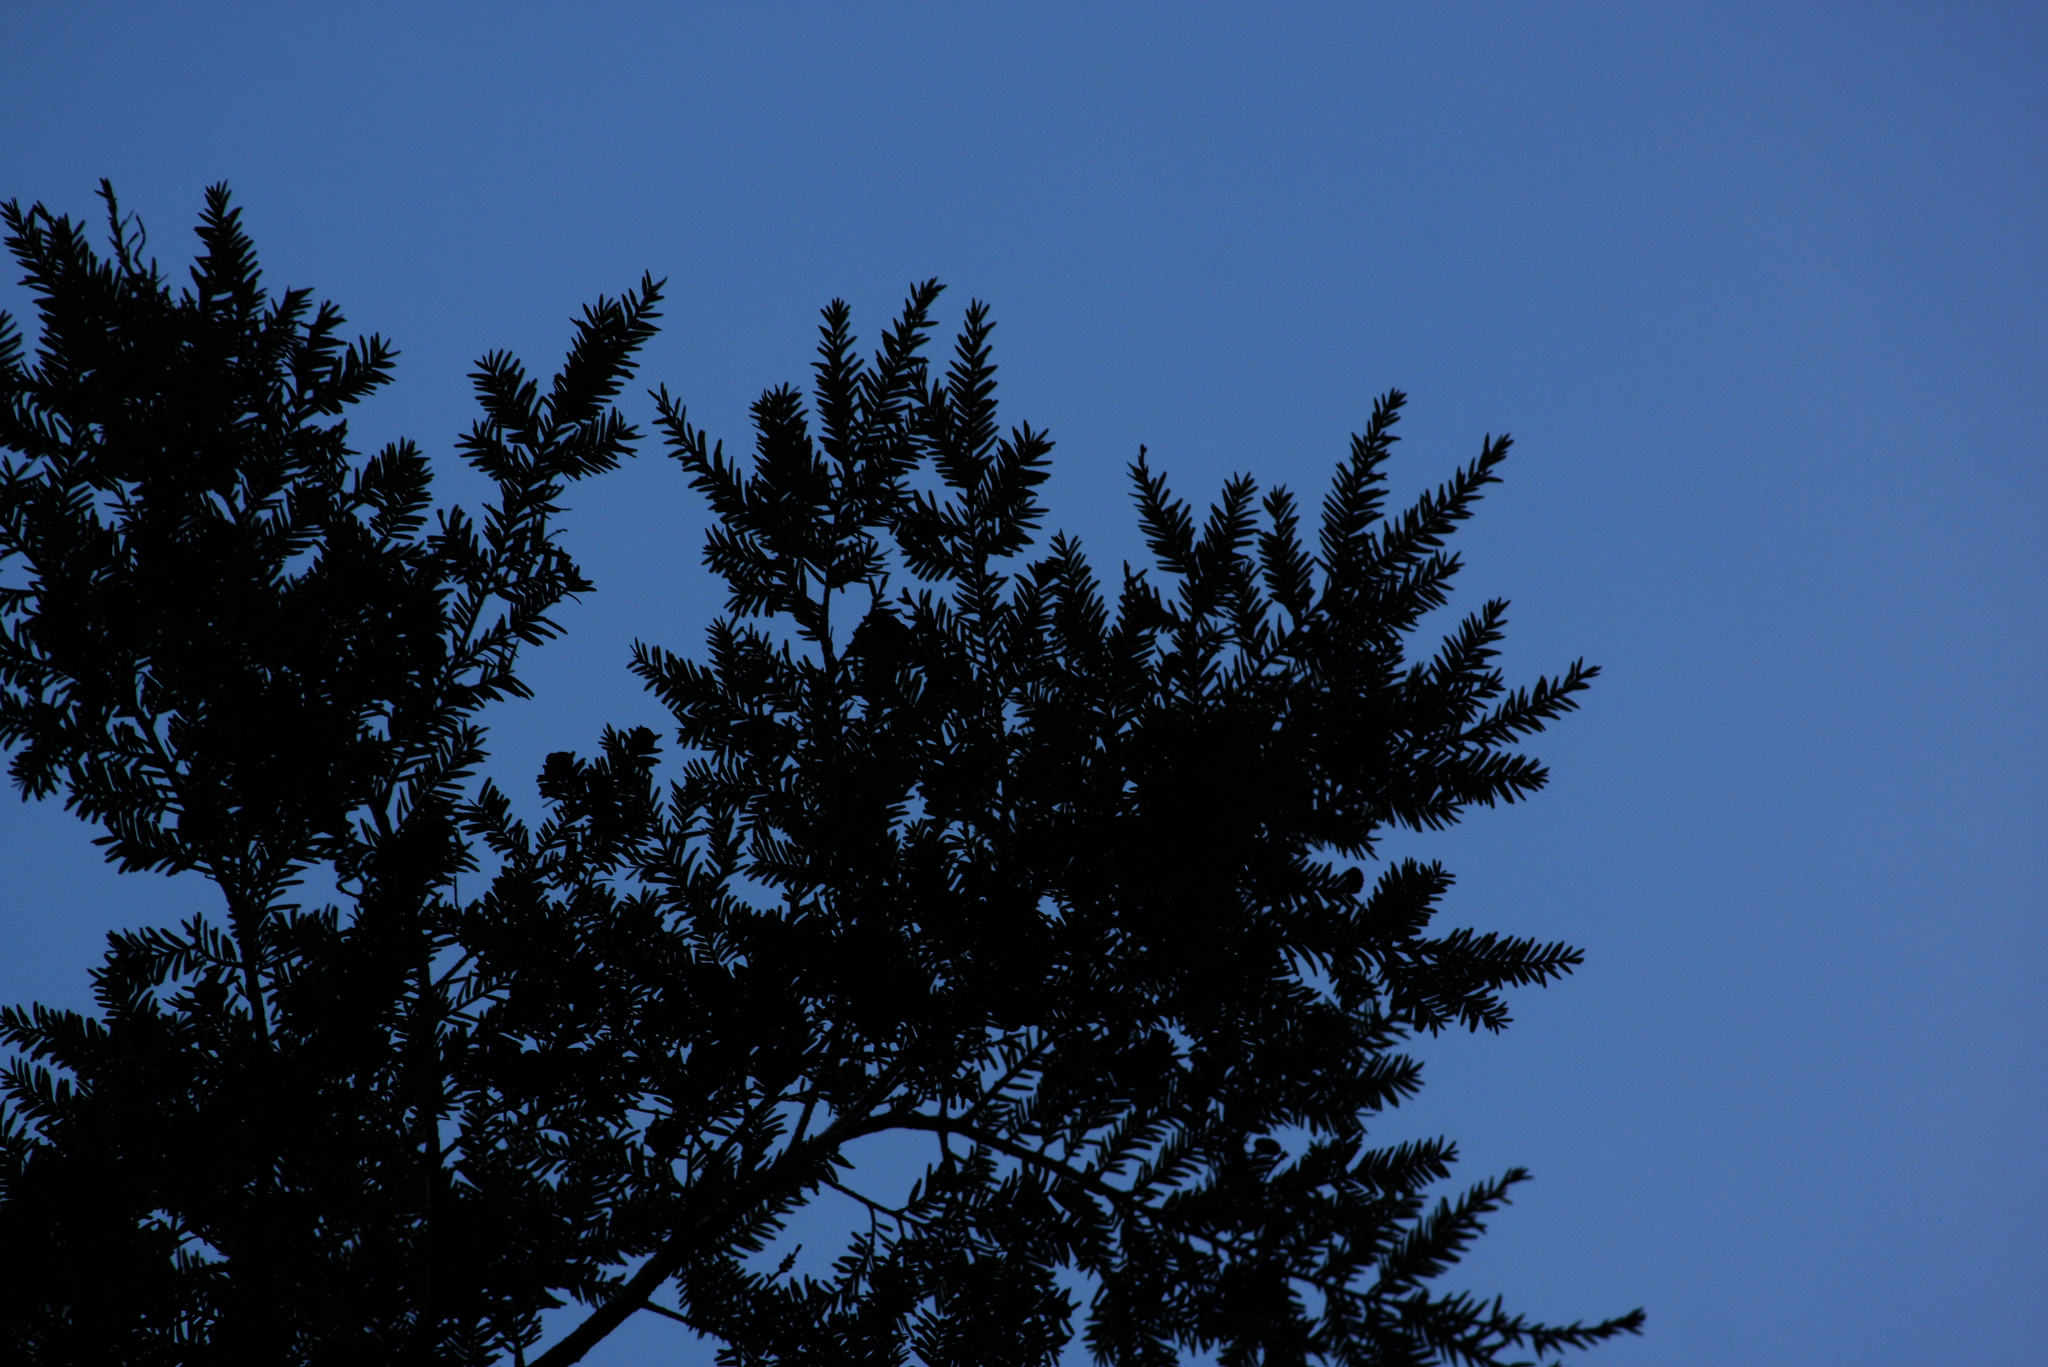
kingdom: Plantae
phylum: Tracheophyta
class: Pinopsida
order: Pinales
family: Pinaceae
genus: Tsuga
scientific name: Tsuga canadensis
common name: Eastern hemlock
